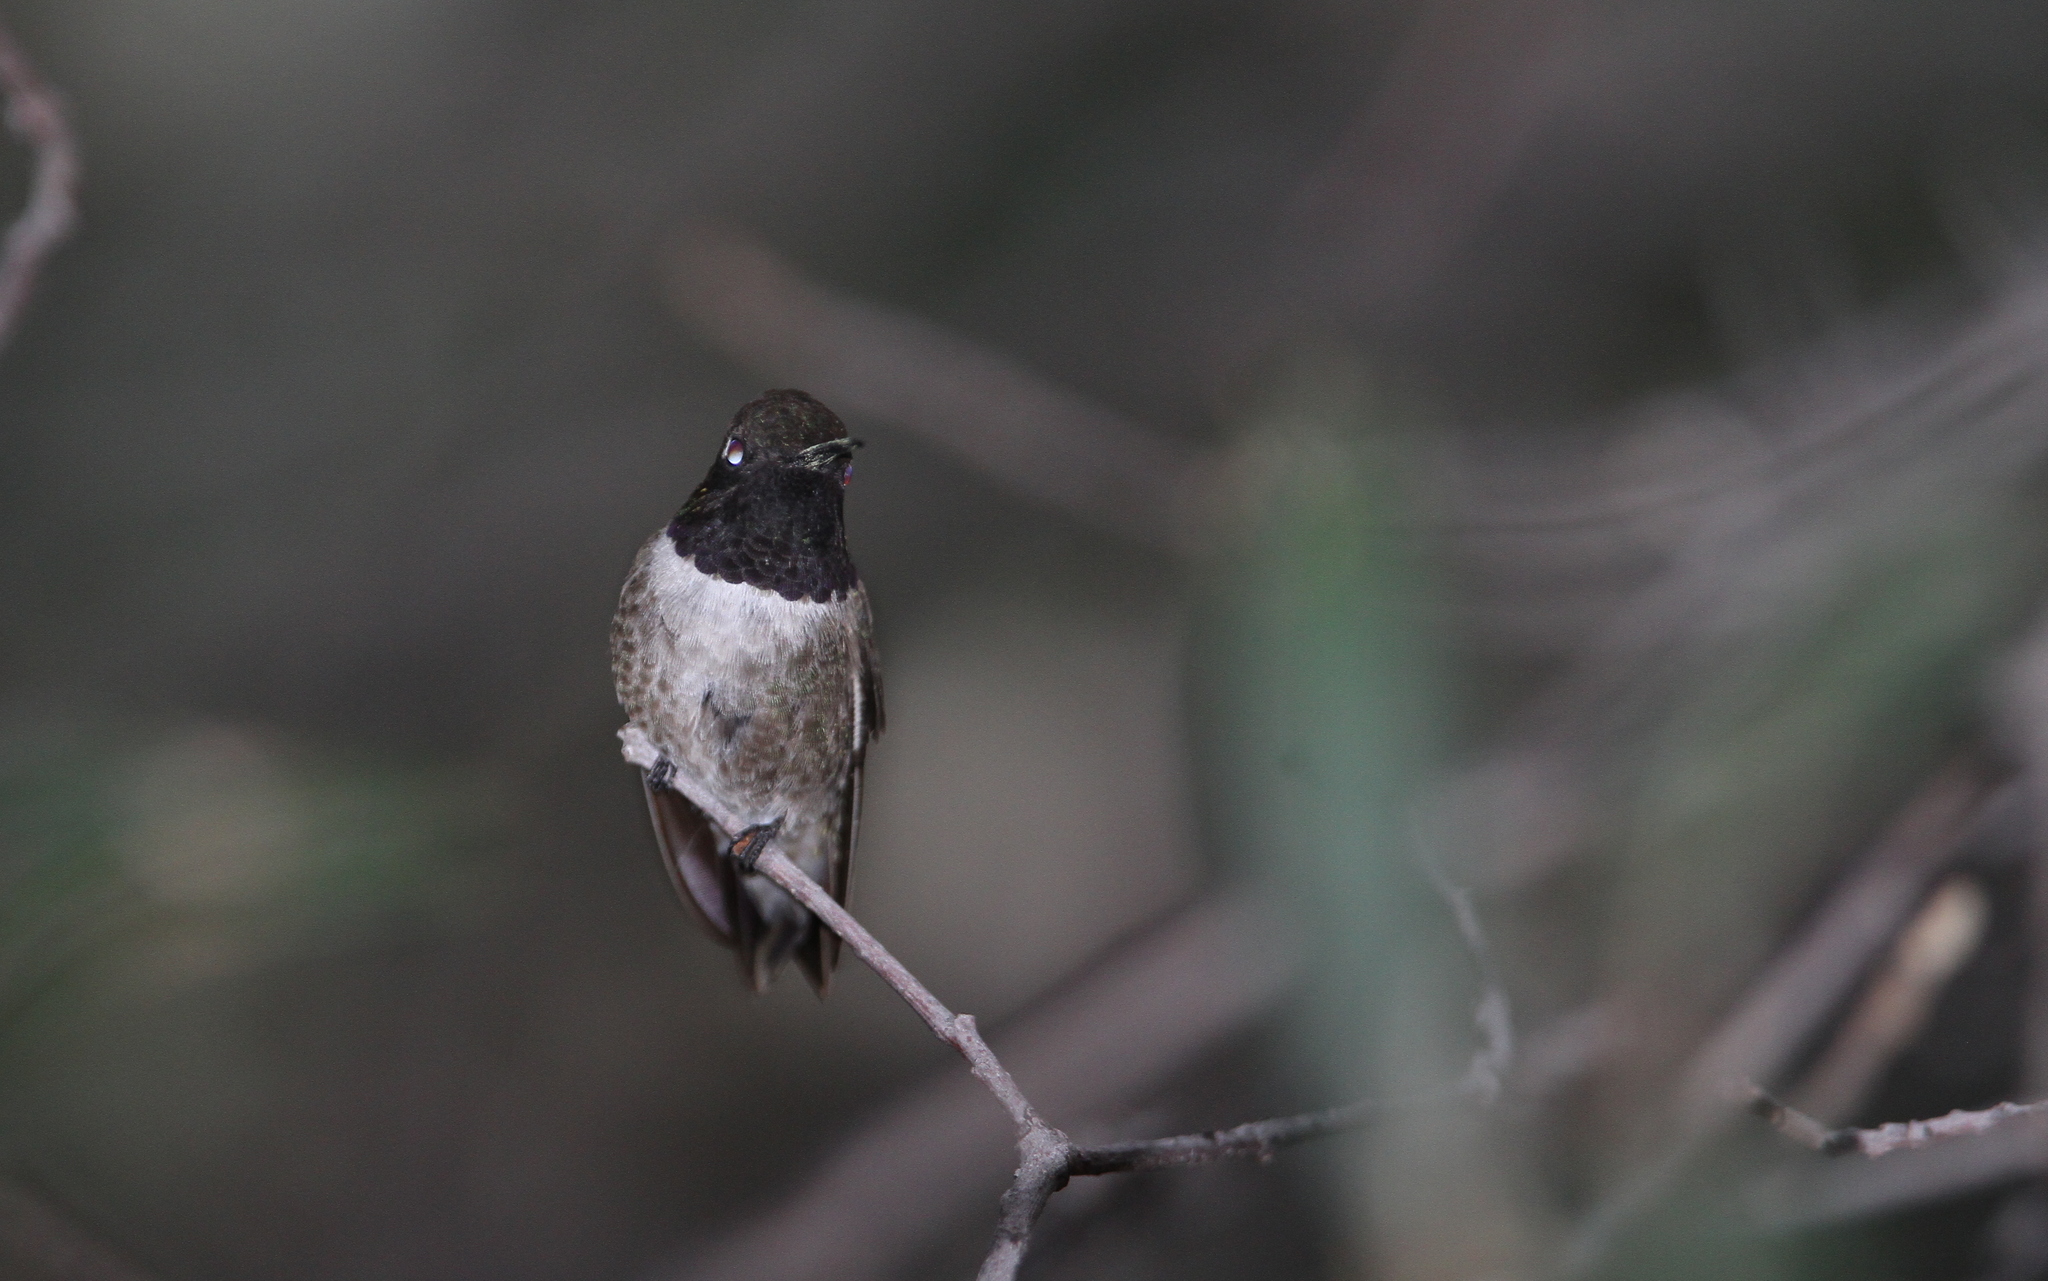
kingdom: Animalia
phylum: Chordata
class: Aves
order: Apodiformes
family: Trochilidae
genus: Archilochus
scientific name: Archilochus alexandri
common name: Black-chinned hummingbird
